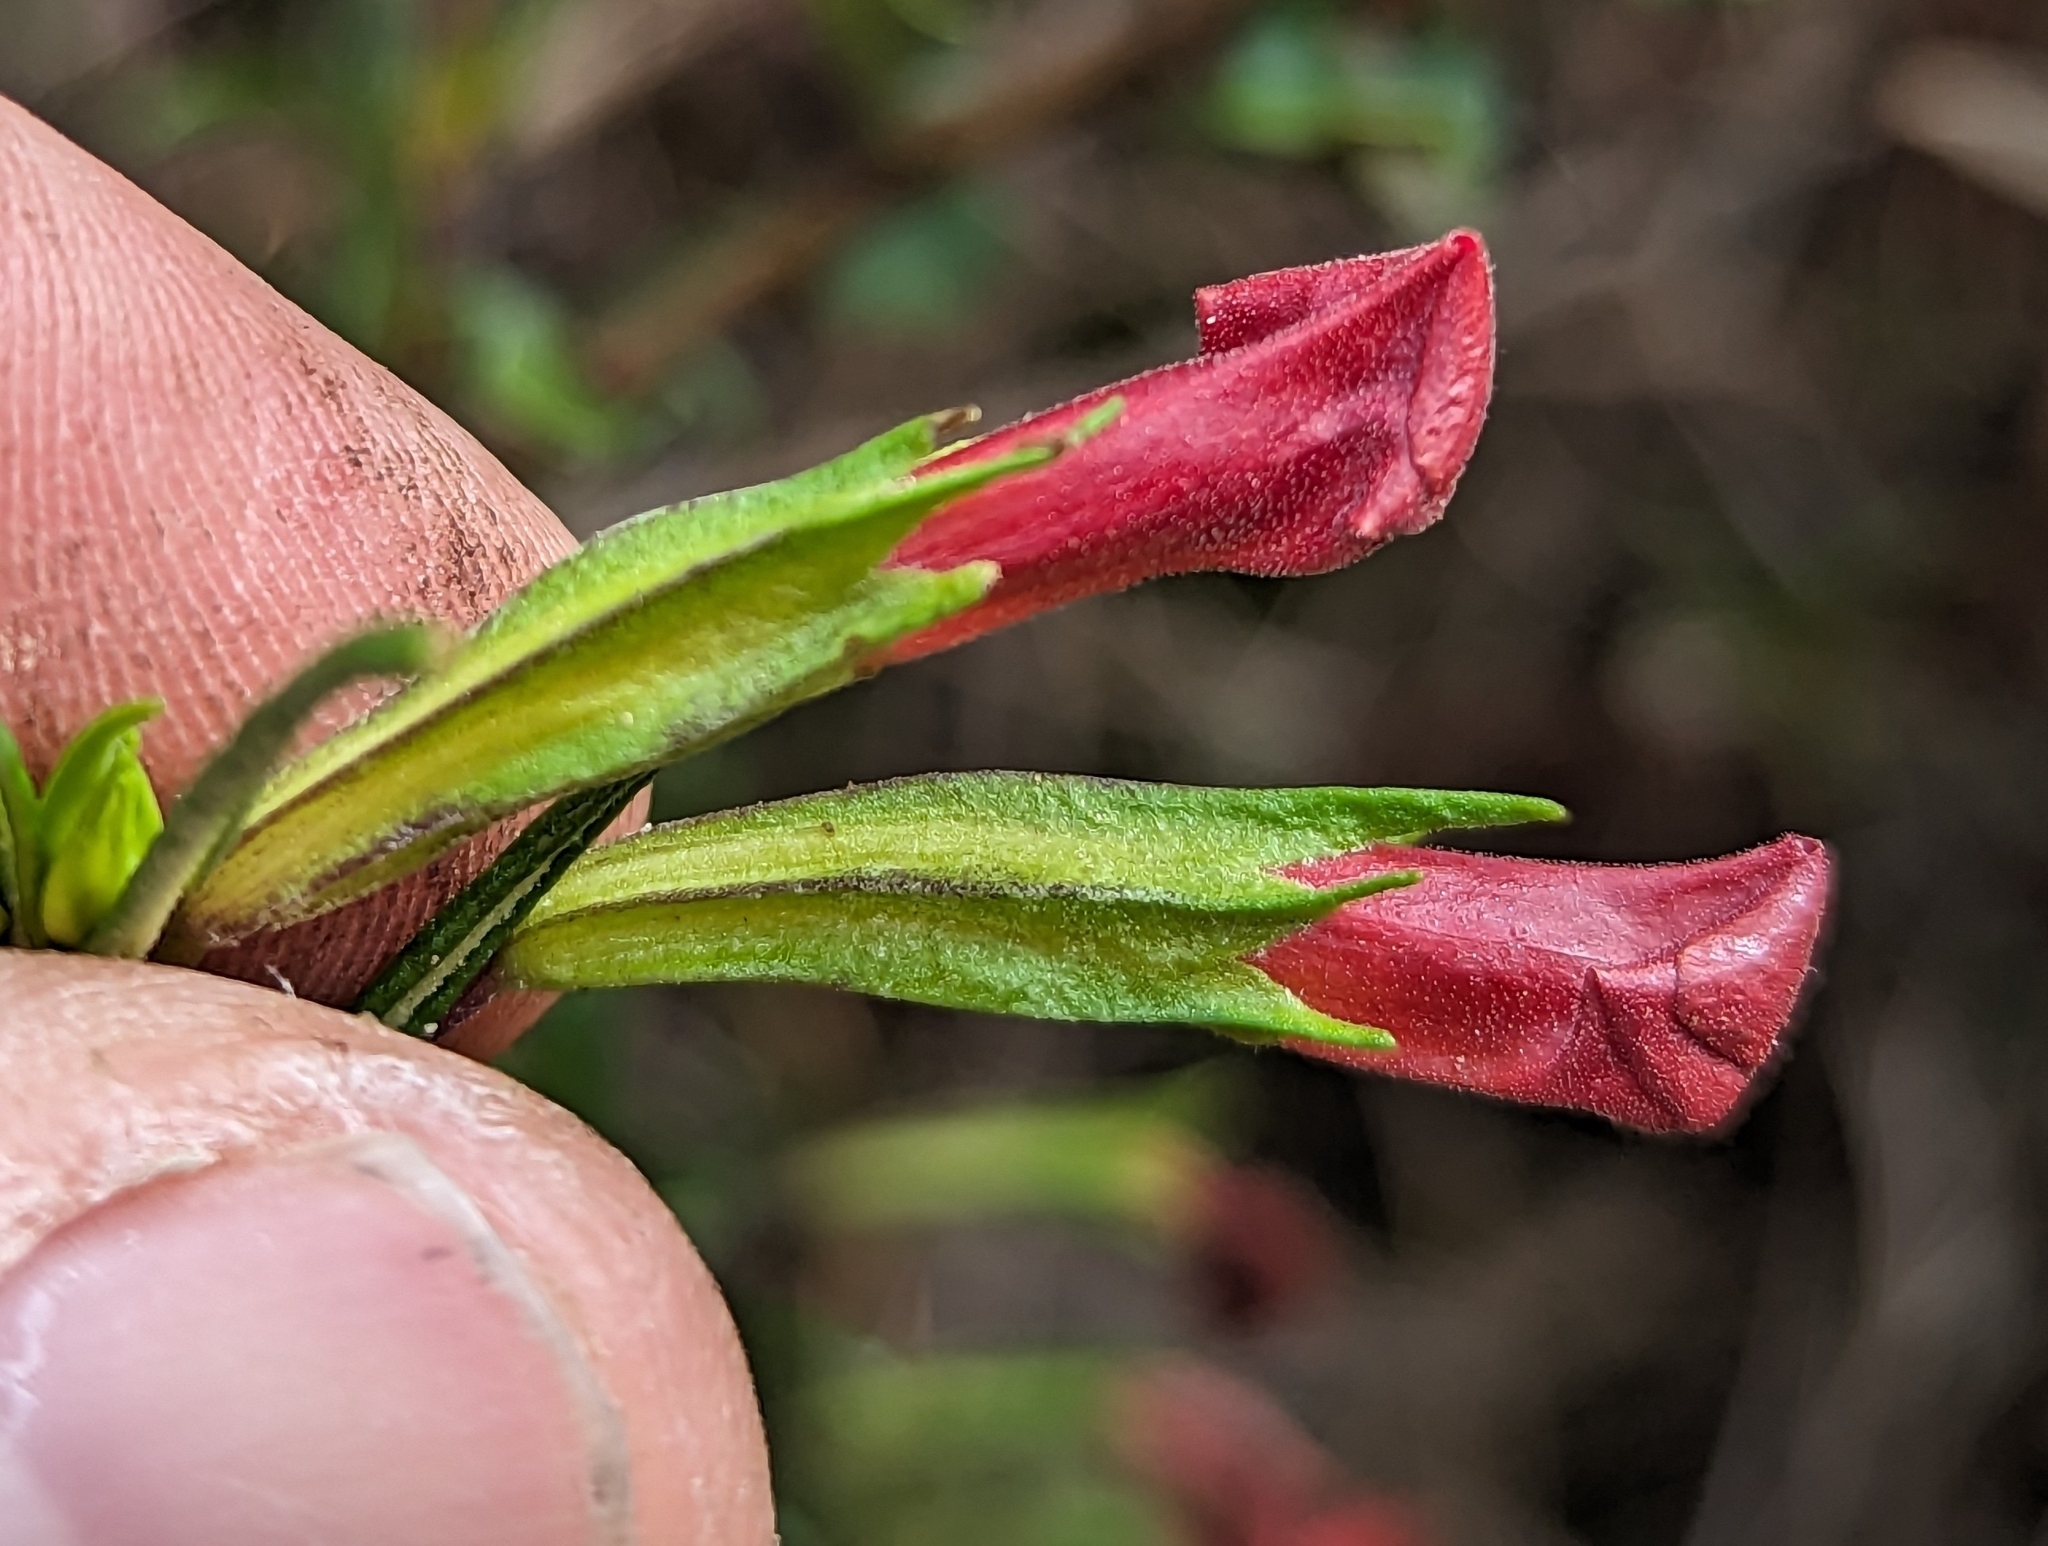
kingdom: Plantae
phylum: Tracheophyta
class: Magnoliopsida
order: Lamiales
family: Phrymaceae
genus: Diplacus
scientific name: Diplacus puniceus
